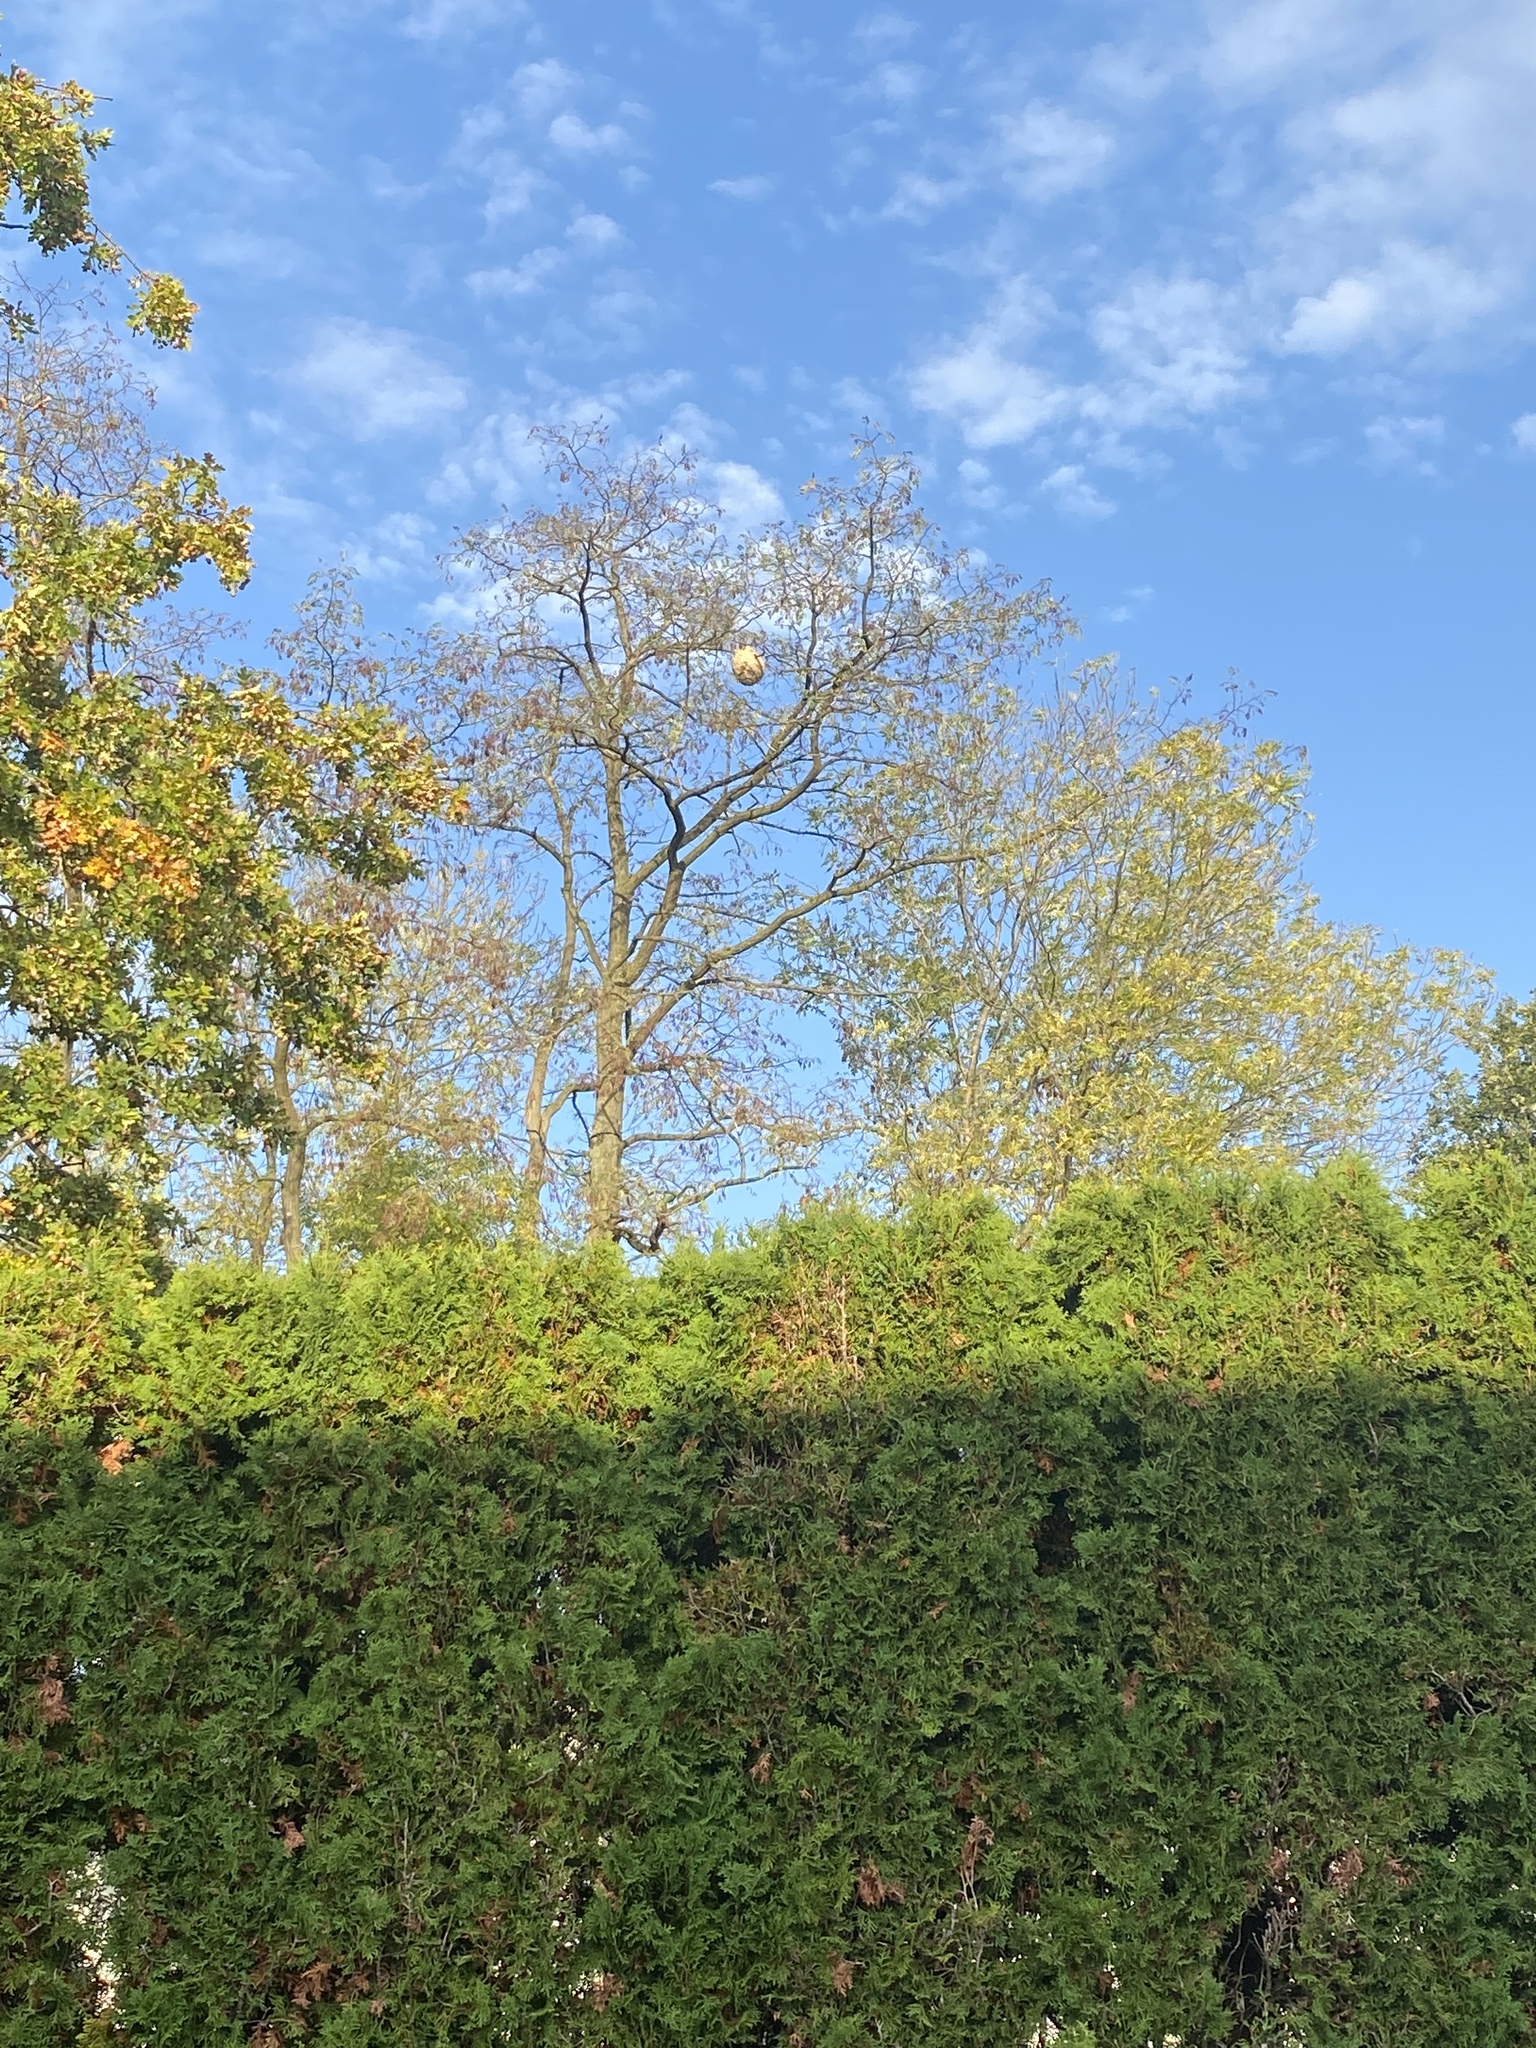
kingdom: Animalia
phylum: Arthropoda
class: Insecta
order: Hymenoptera
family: Vespidae
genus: Vespa
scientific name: Vespa velutina
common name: Asian hornet
